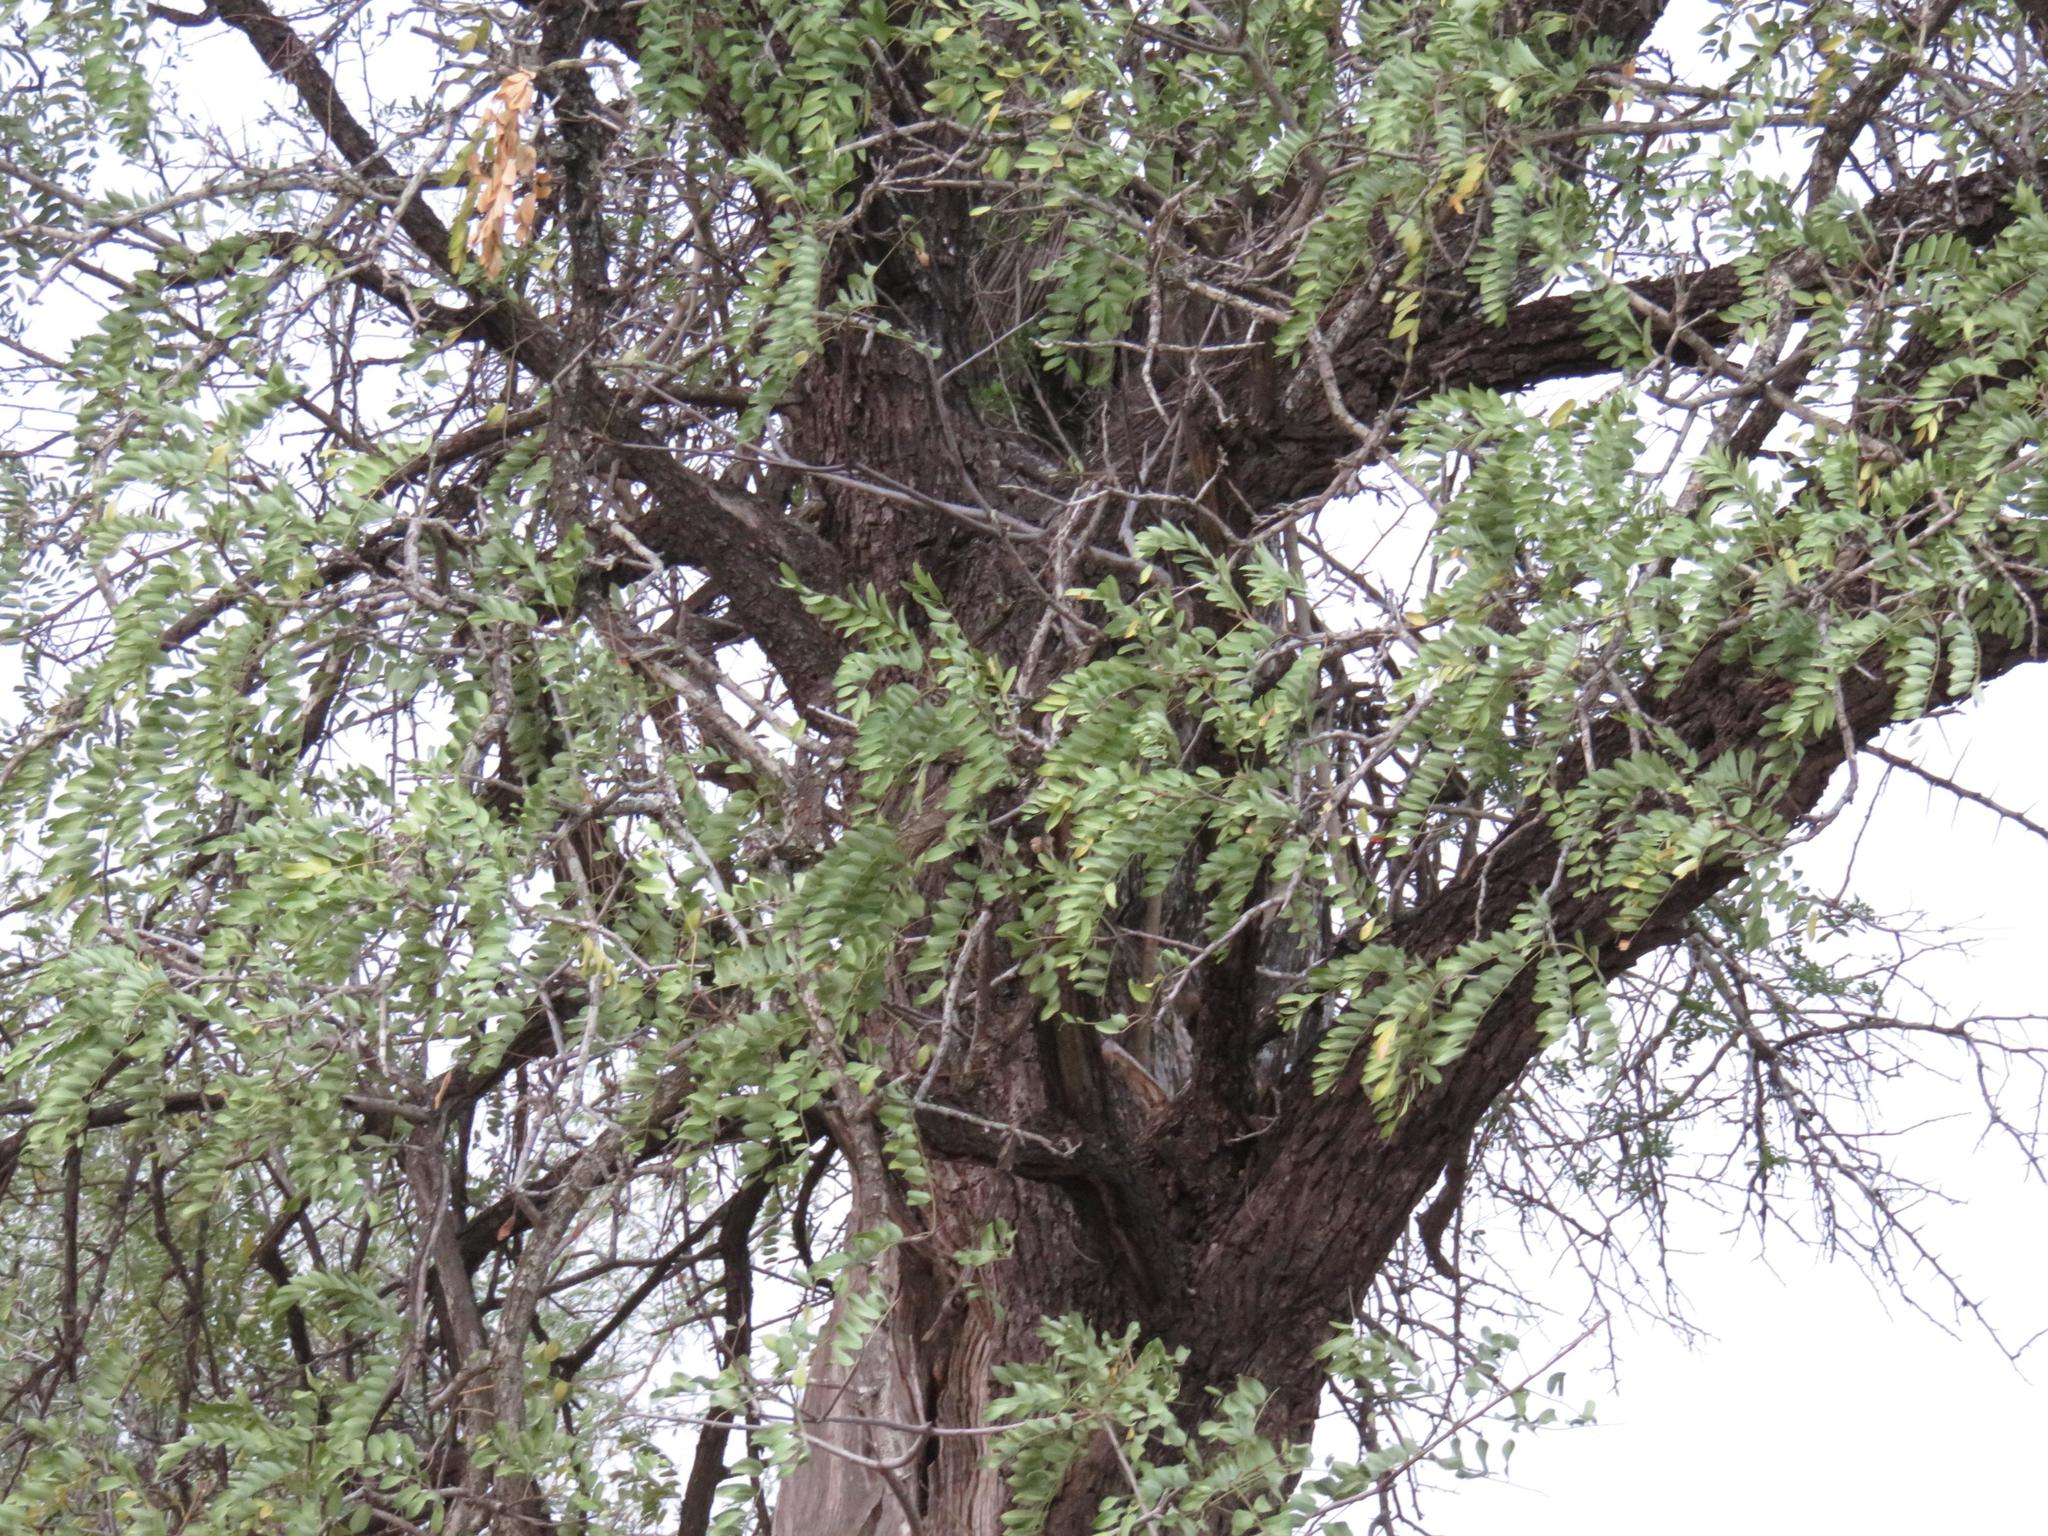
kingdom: Plantae
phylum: Tracheophyta
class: Magnoliopsida
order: Fabales
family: Fabaceae
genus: Cassia
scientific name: Cassia abbreviata
